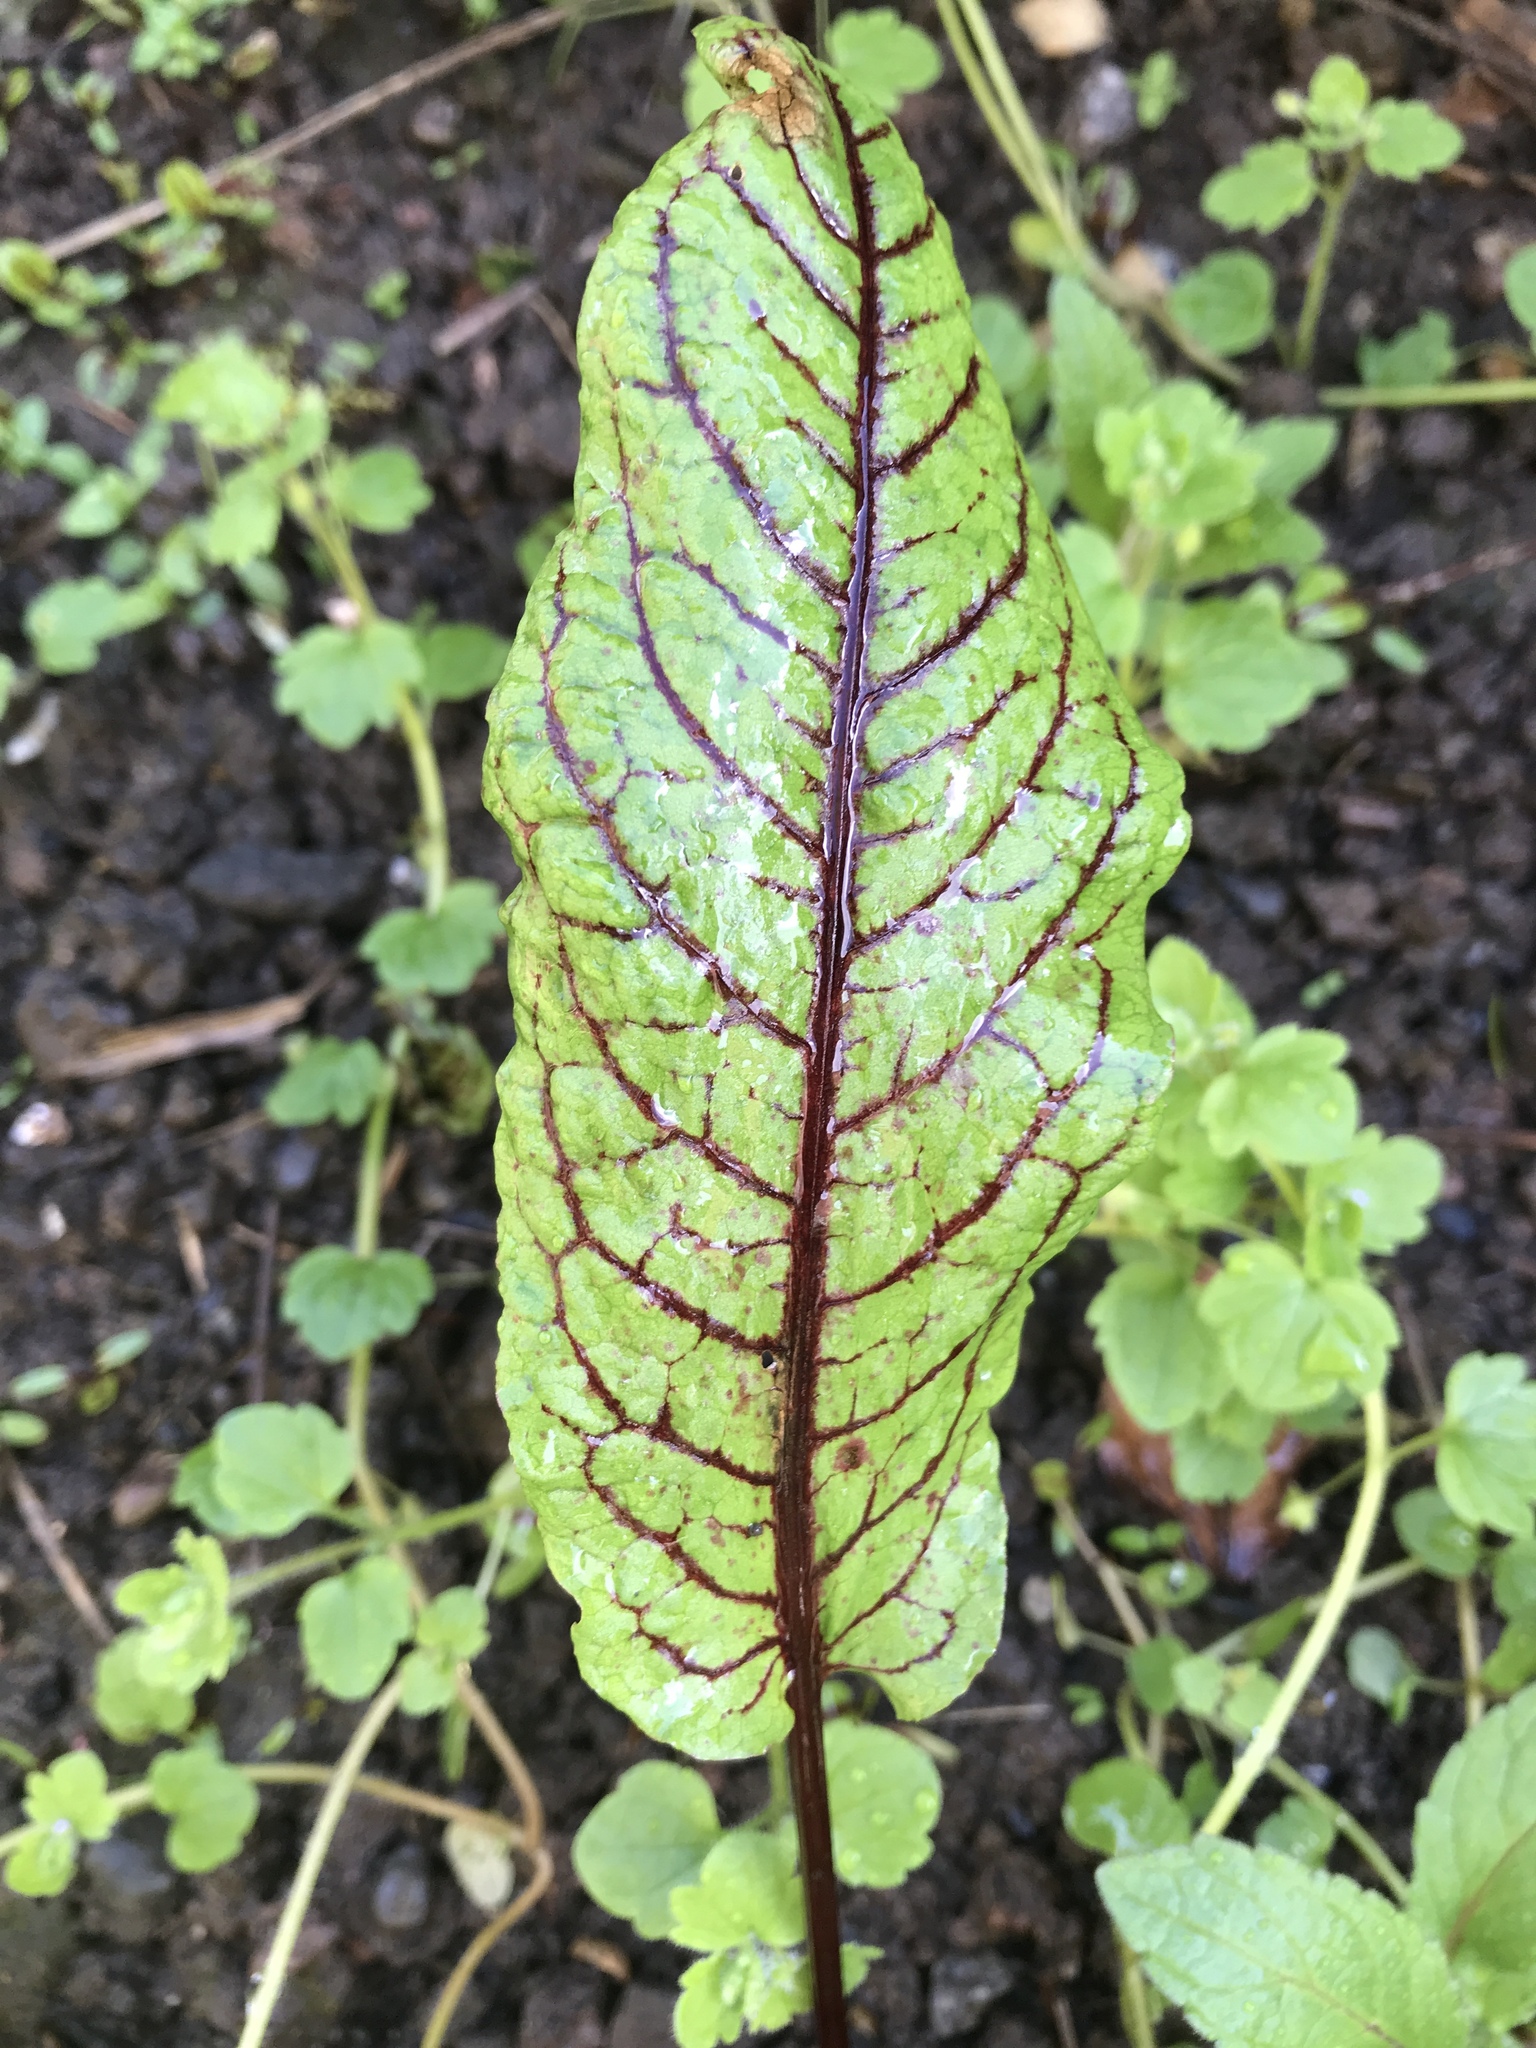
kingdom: Plantae
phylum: Tracheophyta
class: Magnoliopsida
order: Caryophyllales
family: Polygonaceae
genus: Rumex
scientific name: Rumex sanguineus
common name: Wood dock
